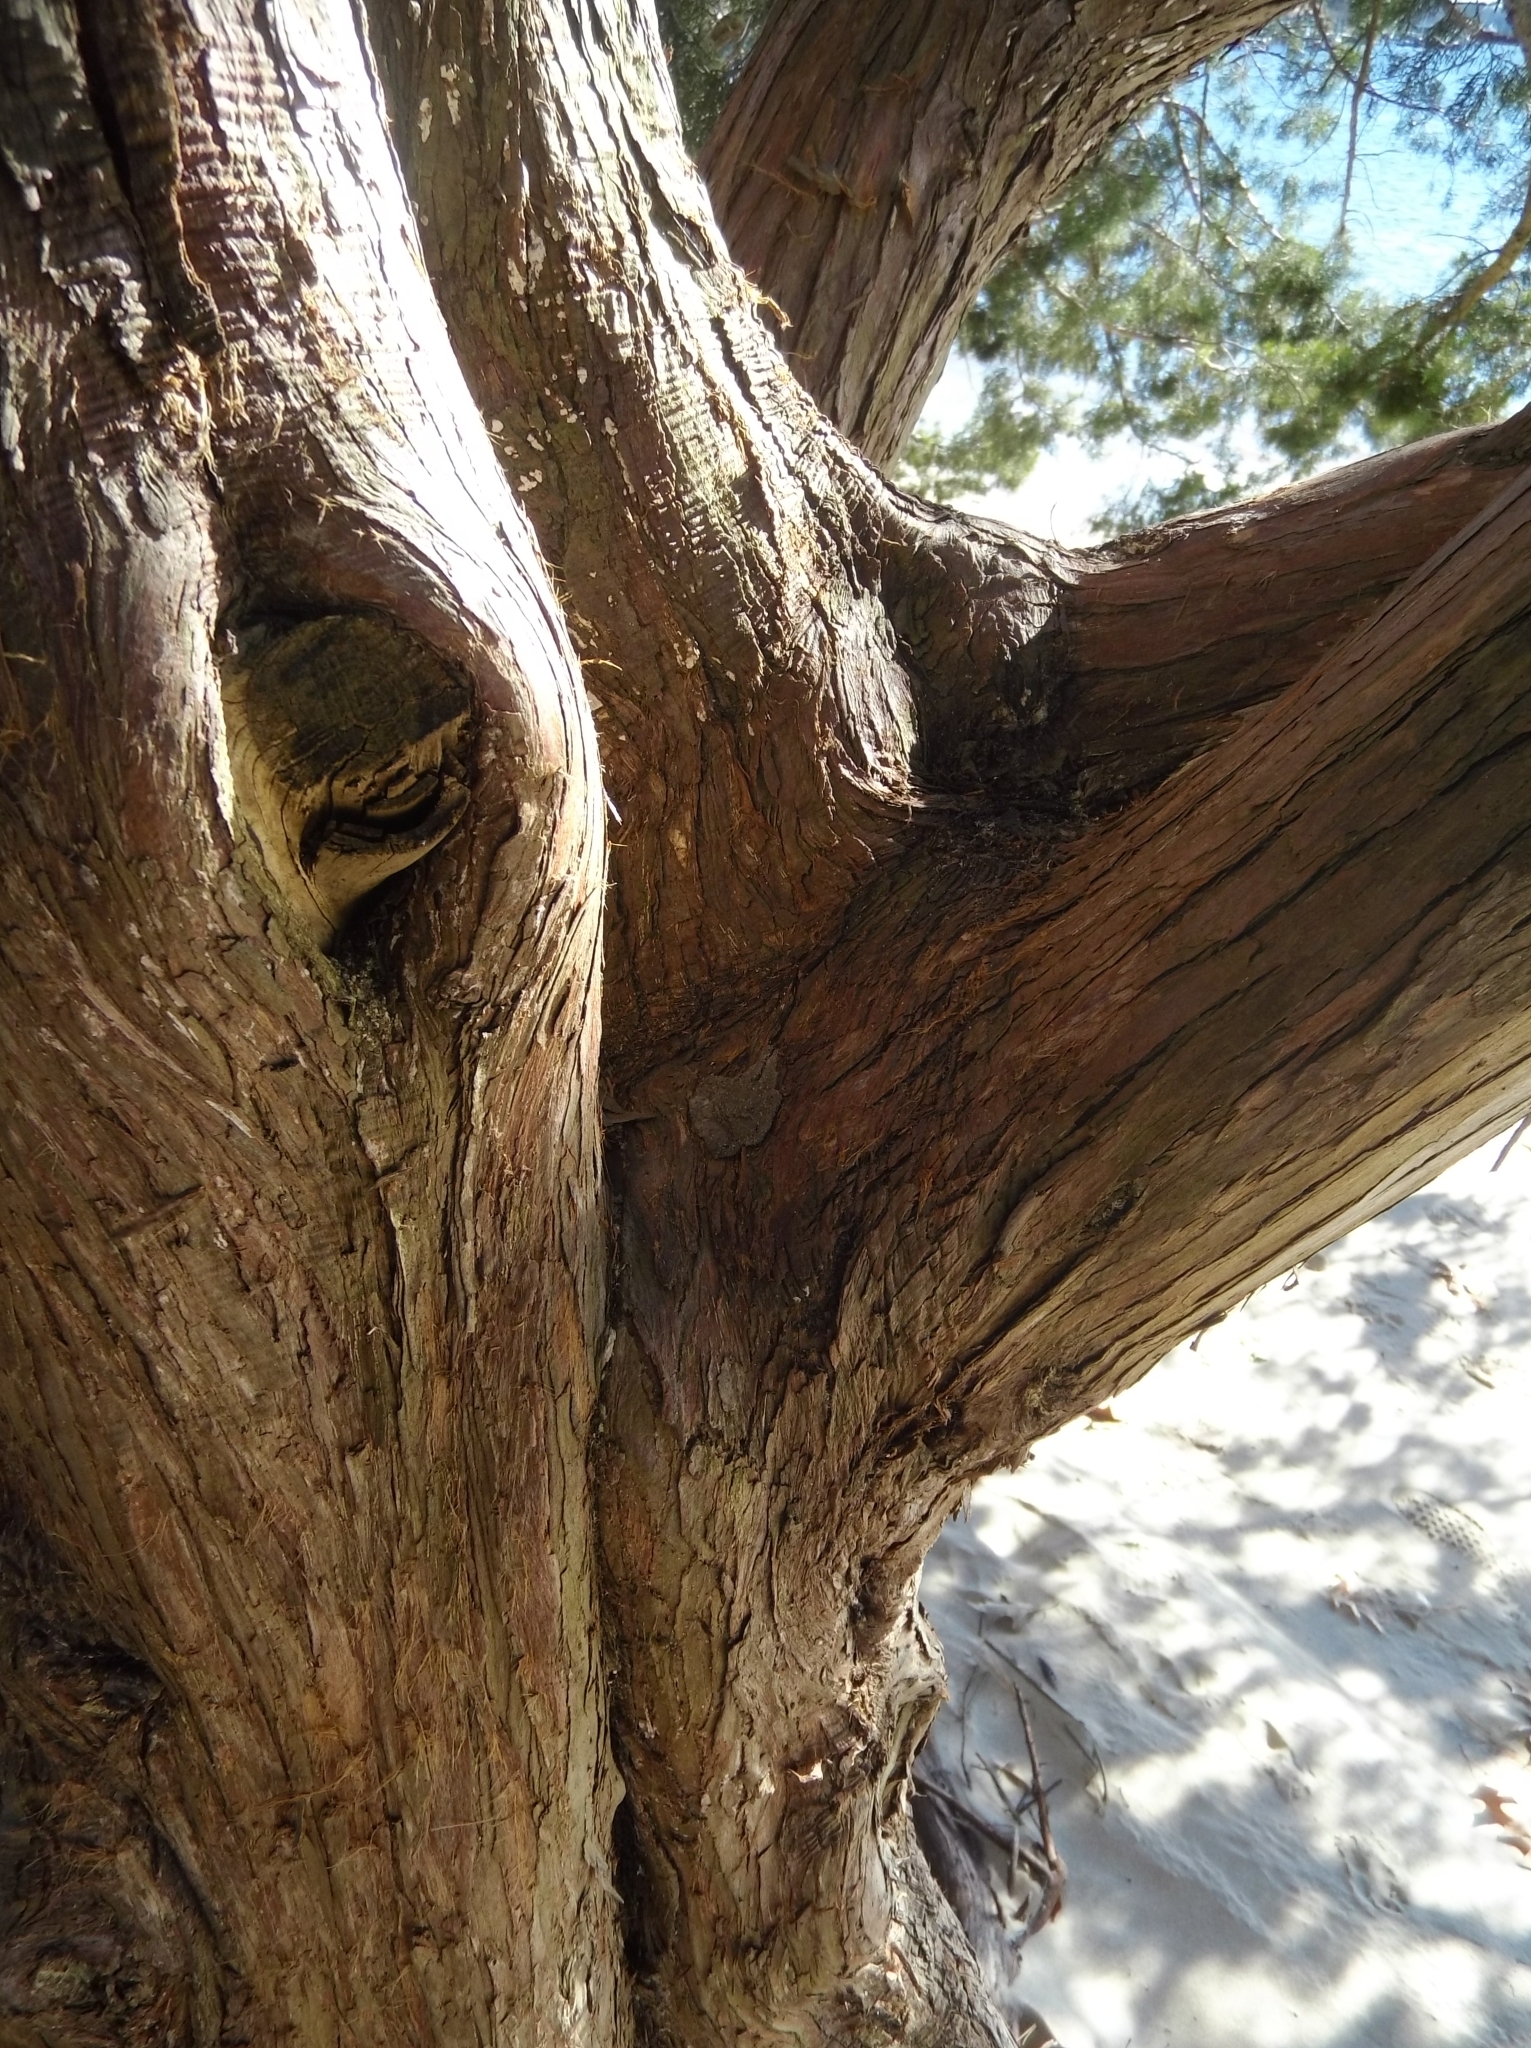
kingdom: Plantae
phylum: Tracheophyta
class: Pinopsida
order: Pinales
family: Cupressaceae
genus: Juniperus
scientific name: Juniperus virginiana
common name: Red juniper
